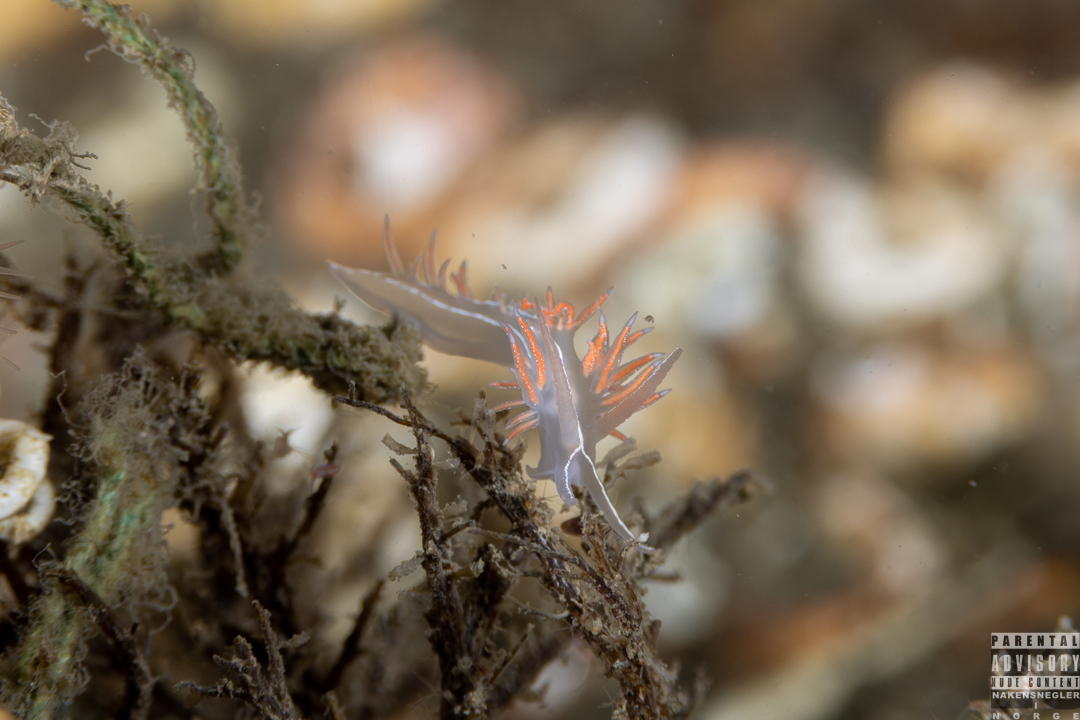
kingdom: Animalia
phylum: Mollusca
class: Gastropoda
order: Nudibranchia
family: Coryphellidae
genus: Coryphella
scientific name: Coryphella chriskaugei
